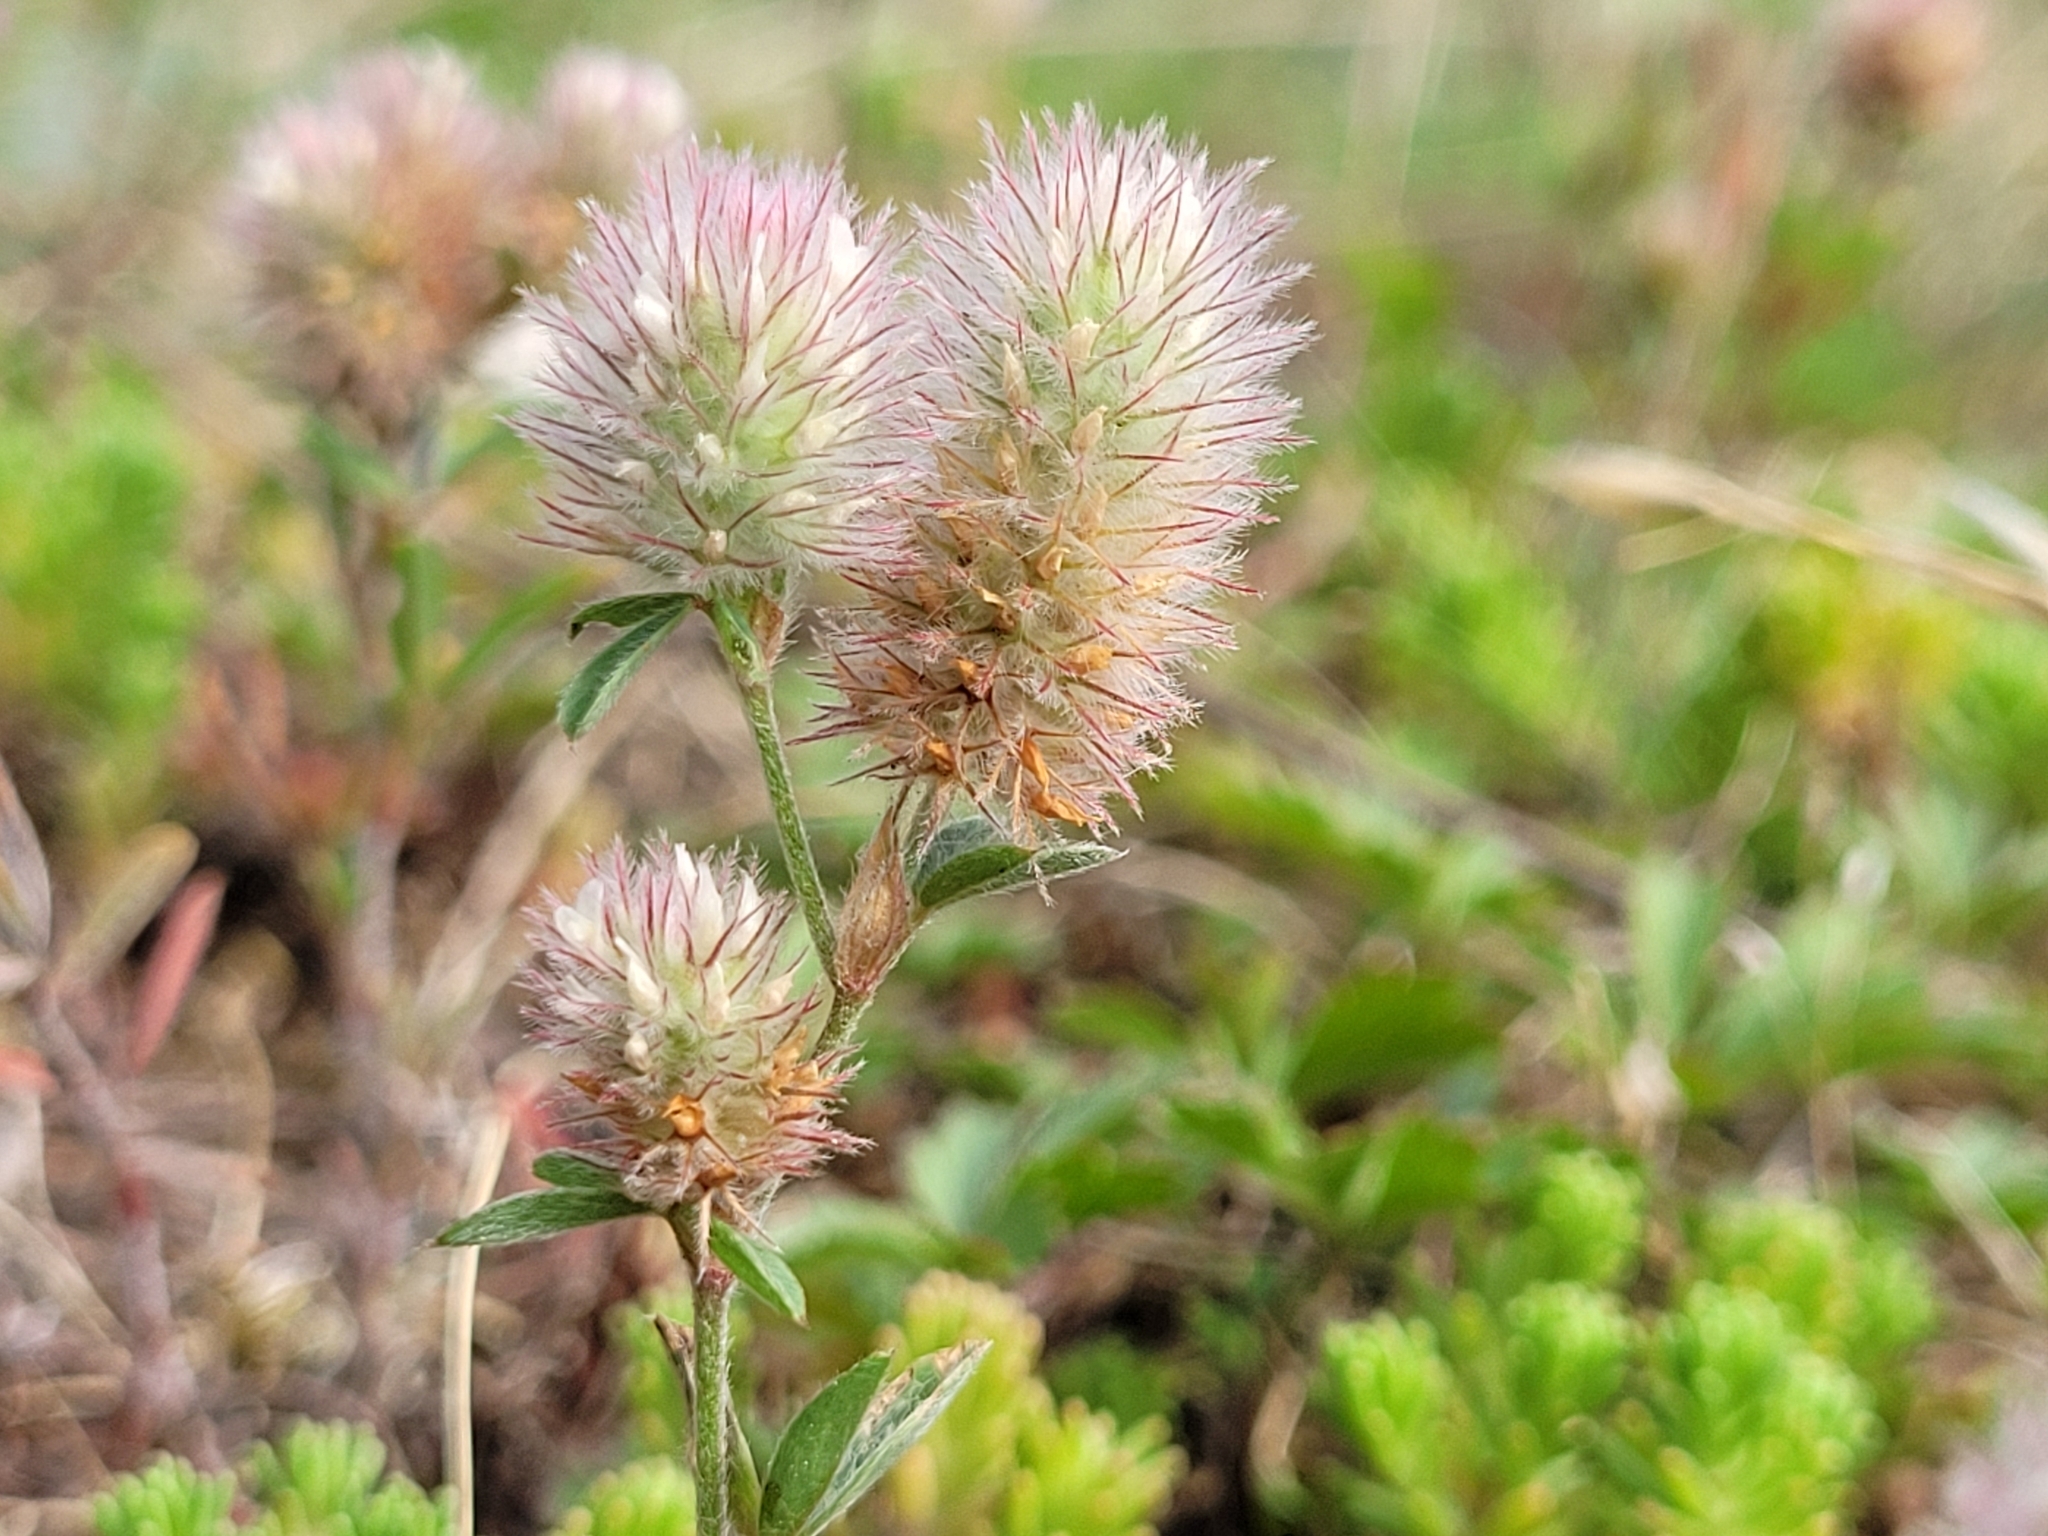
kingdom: Plantae
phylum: Tracheophyta
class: Magnoliopsida
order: Fabales
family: Fabaceae
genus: Trifolium
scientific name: Trifolium arvense
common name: Hare's-foot clover
